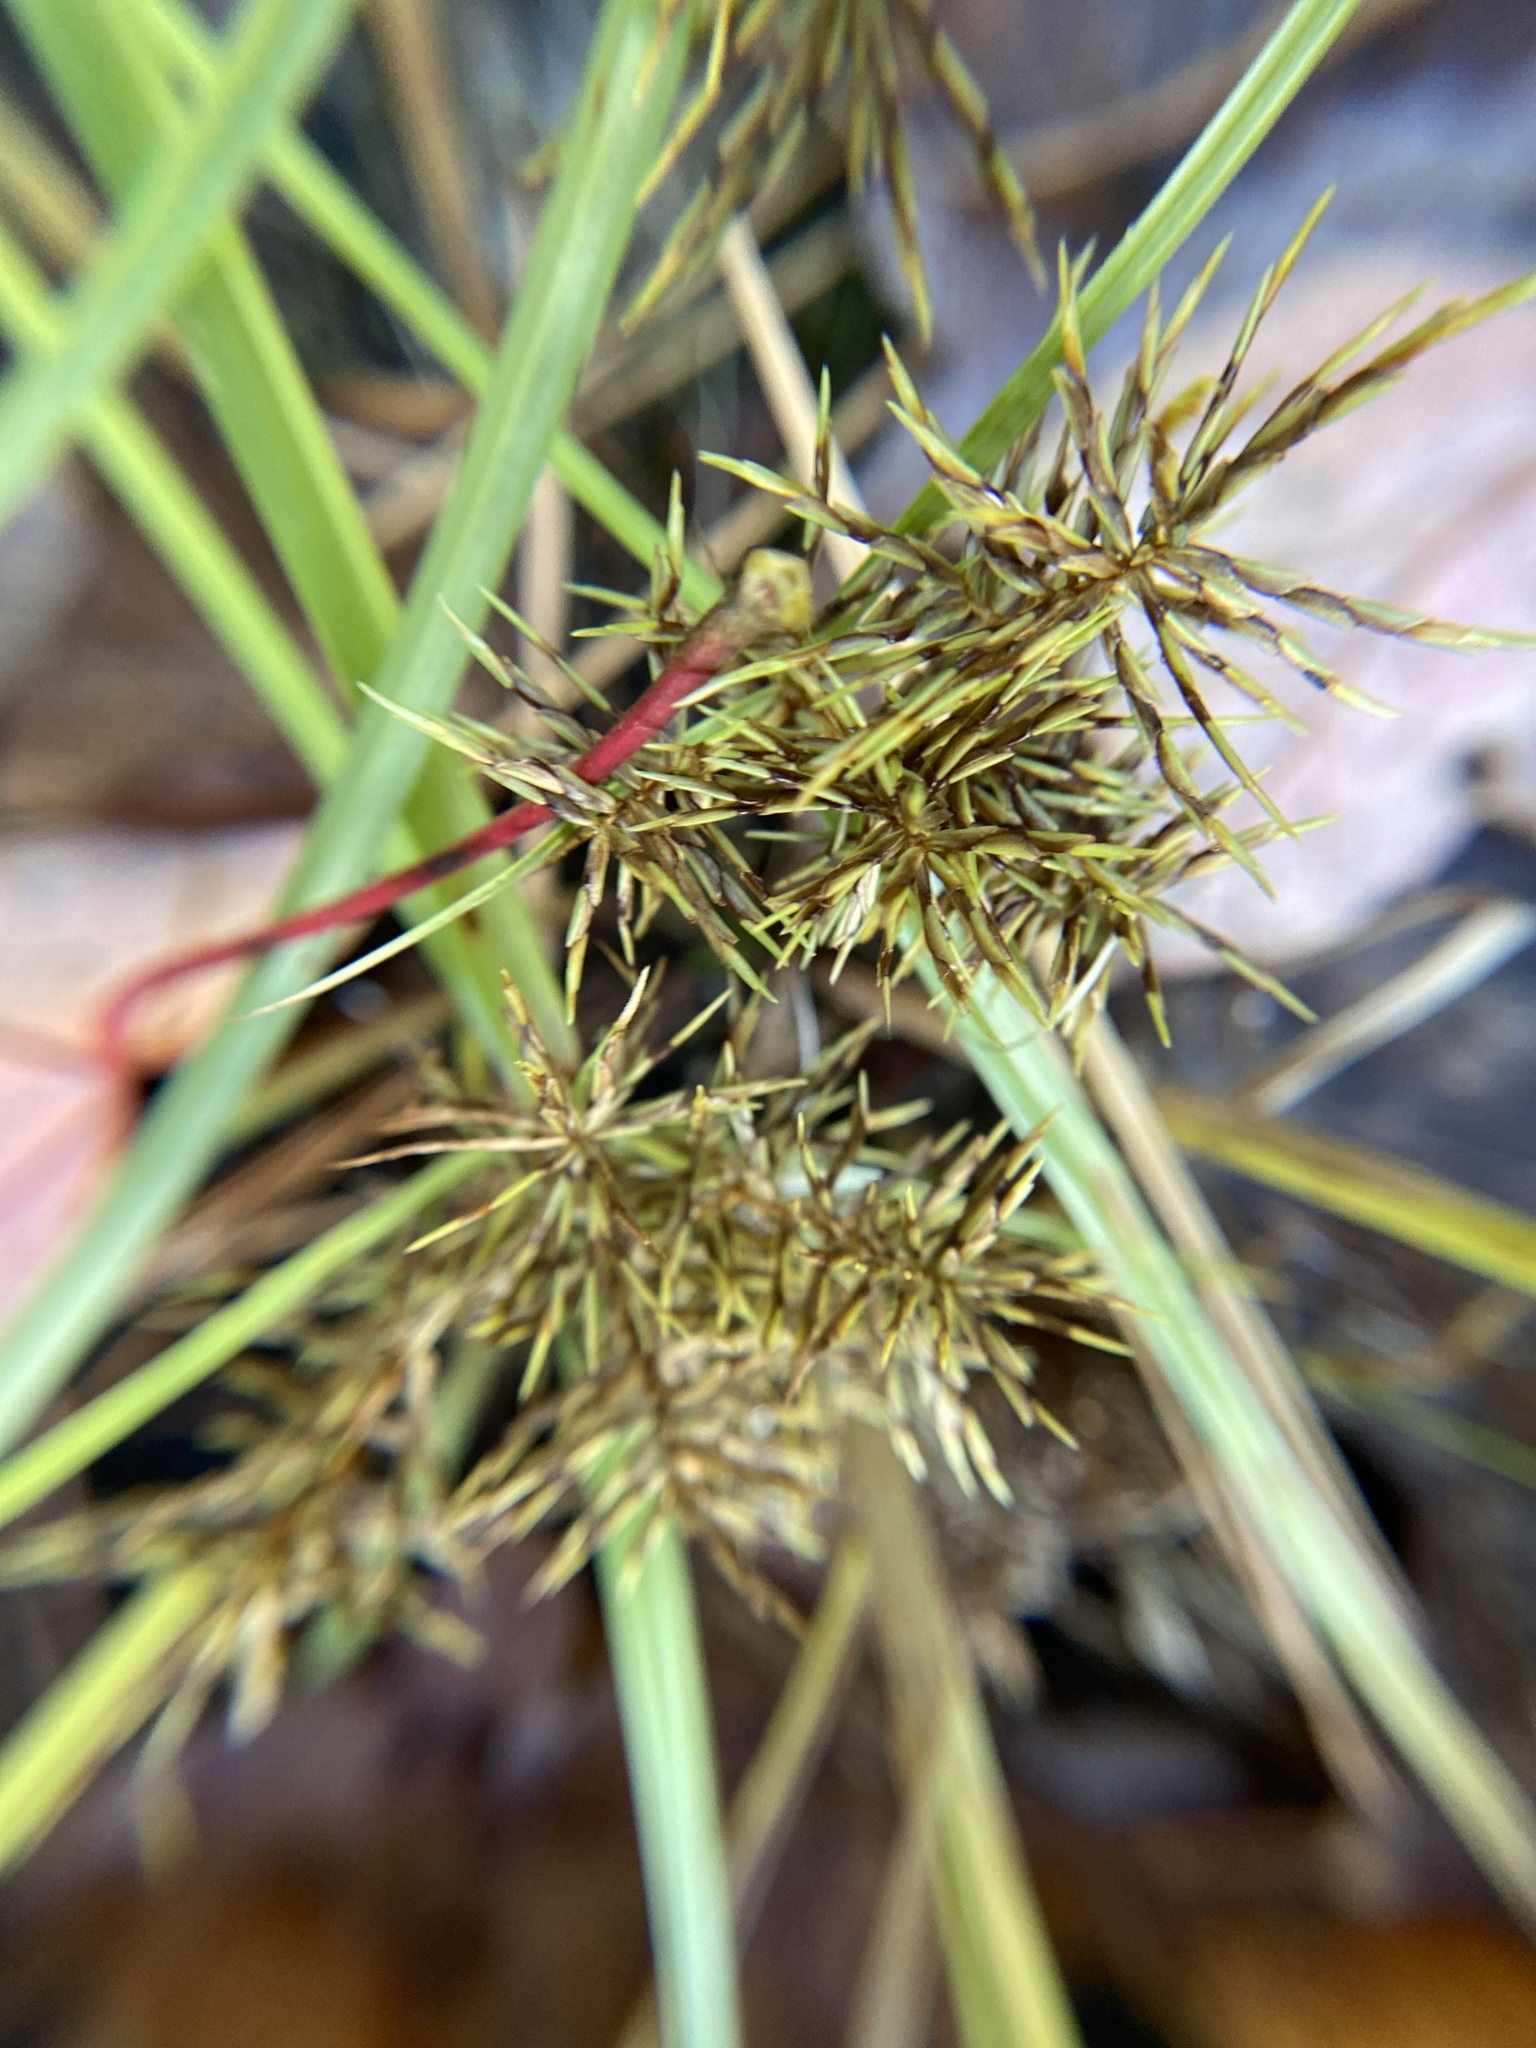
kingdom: Plantae
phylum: Tracheophyta
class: Liliopsida
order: Poales
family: Cyperaceae
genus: Cyperus
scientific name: Cyperus odoratus
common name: Fragrant flatsedge
